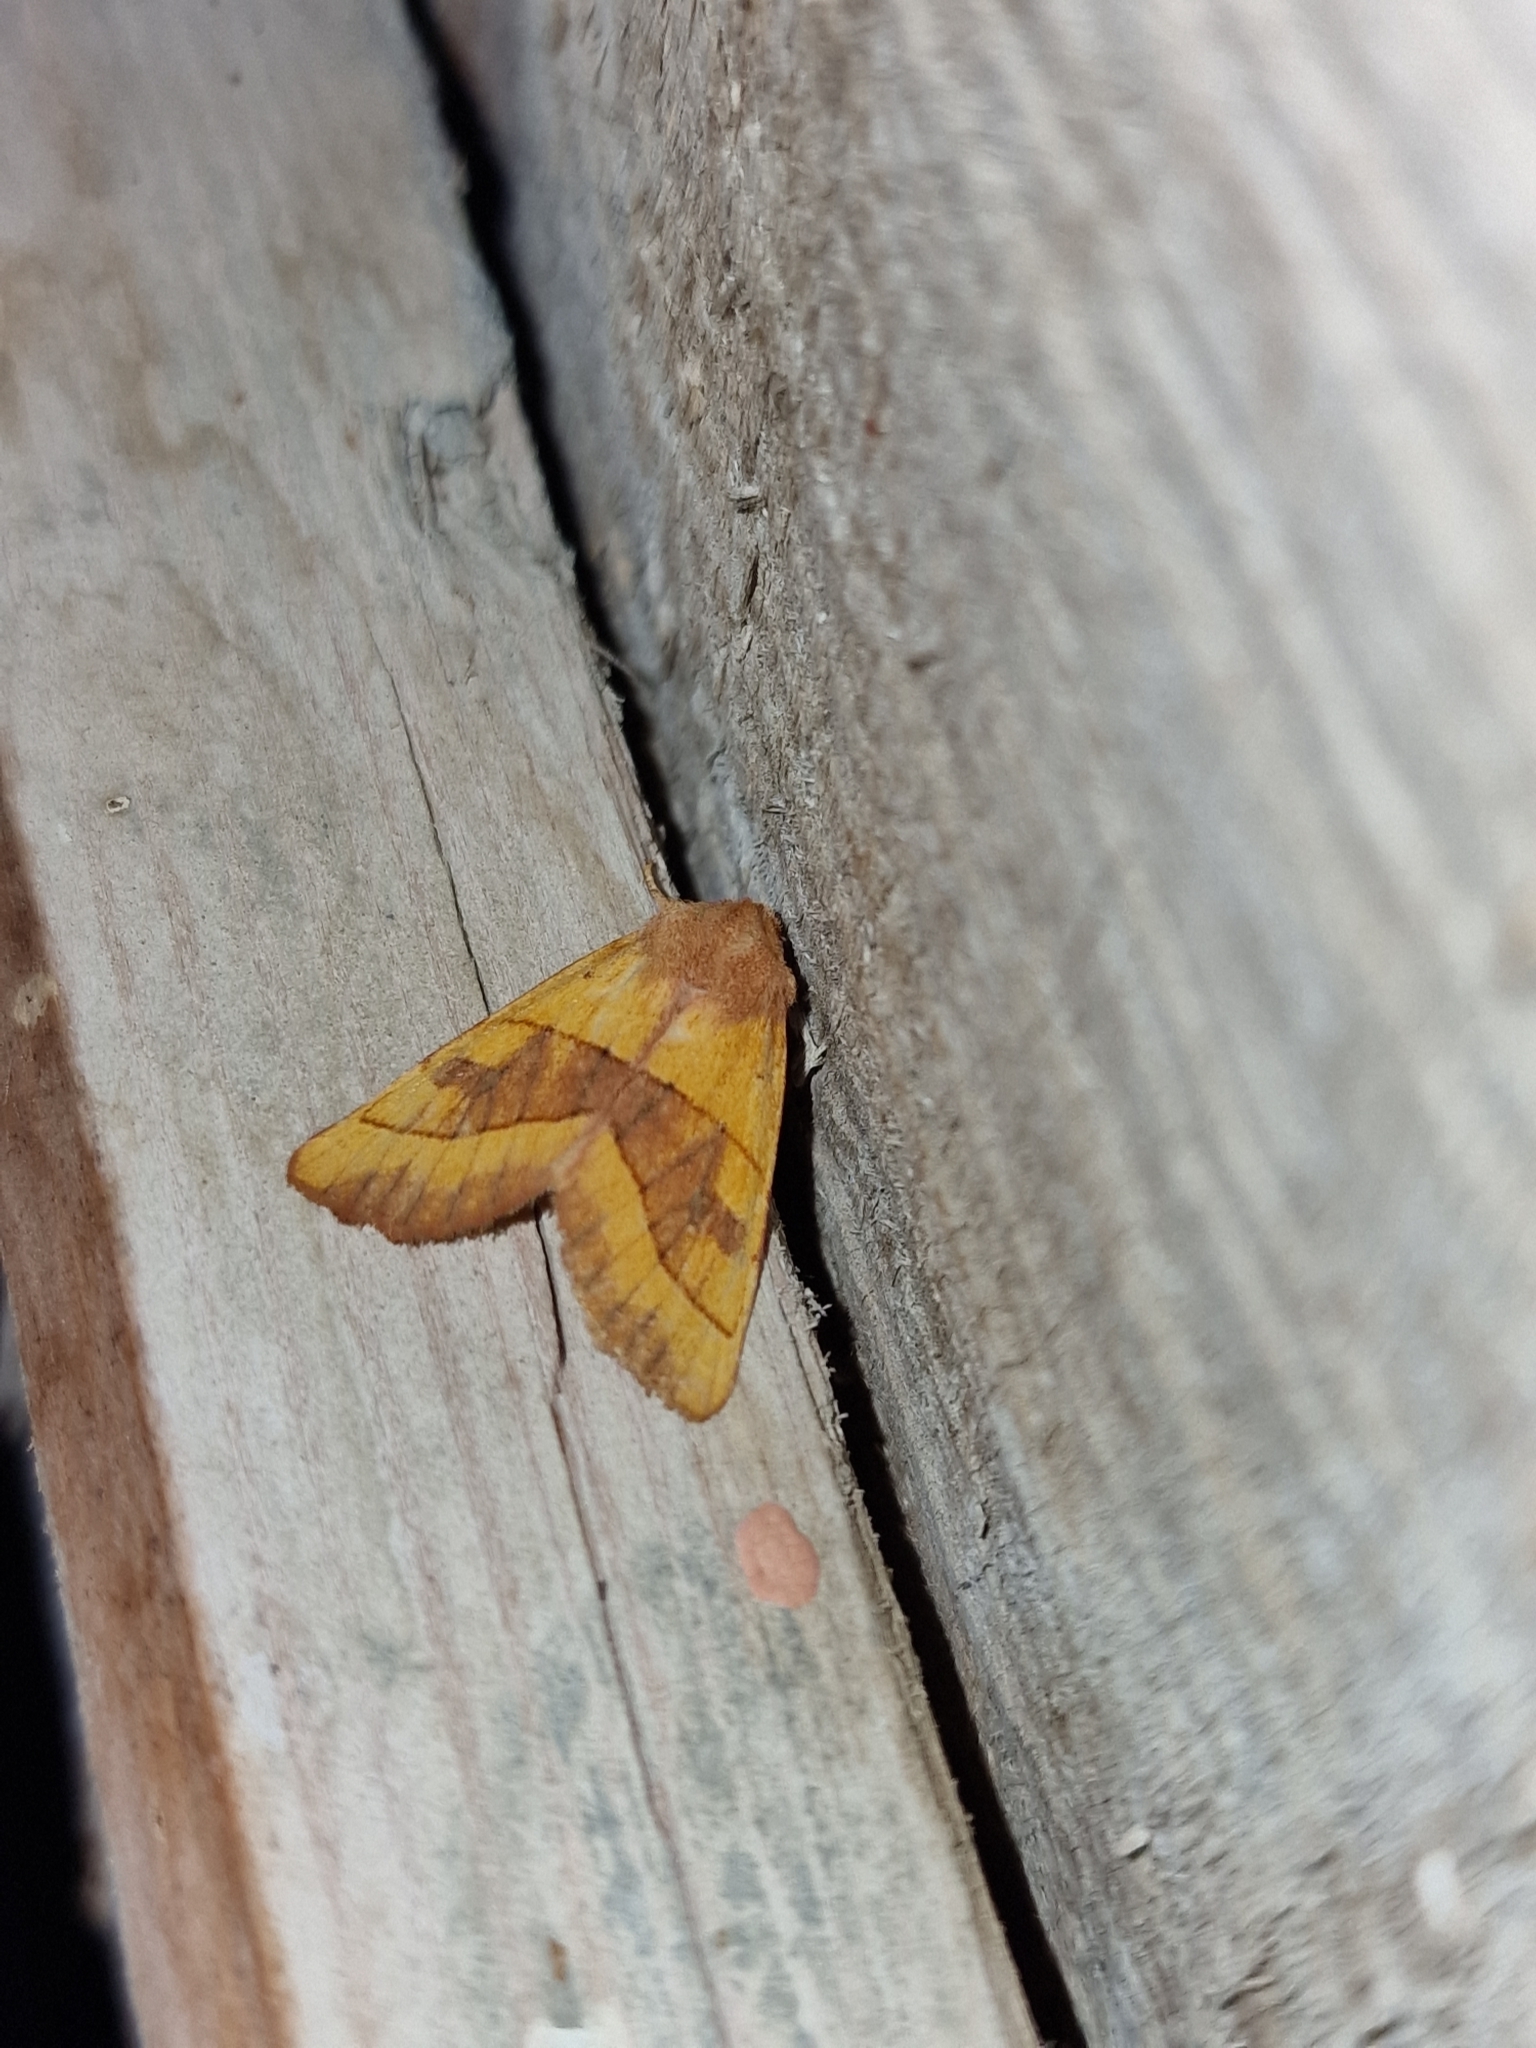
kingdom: Animalia
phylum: Arthropoda
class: Insecta
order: Lepidoptera
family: Noctuidae
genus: Atethmia
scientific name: Atethmia centrago
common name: Centre-barred sallow
